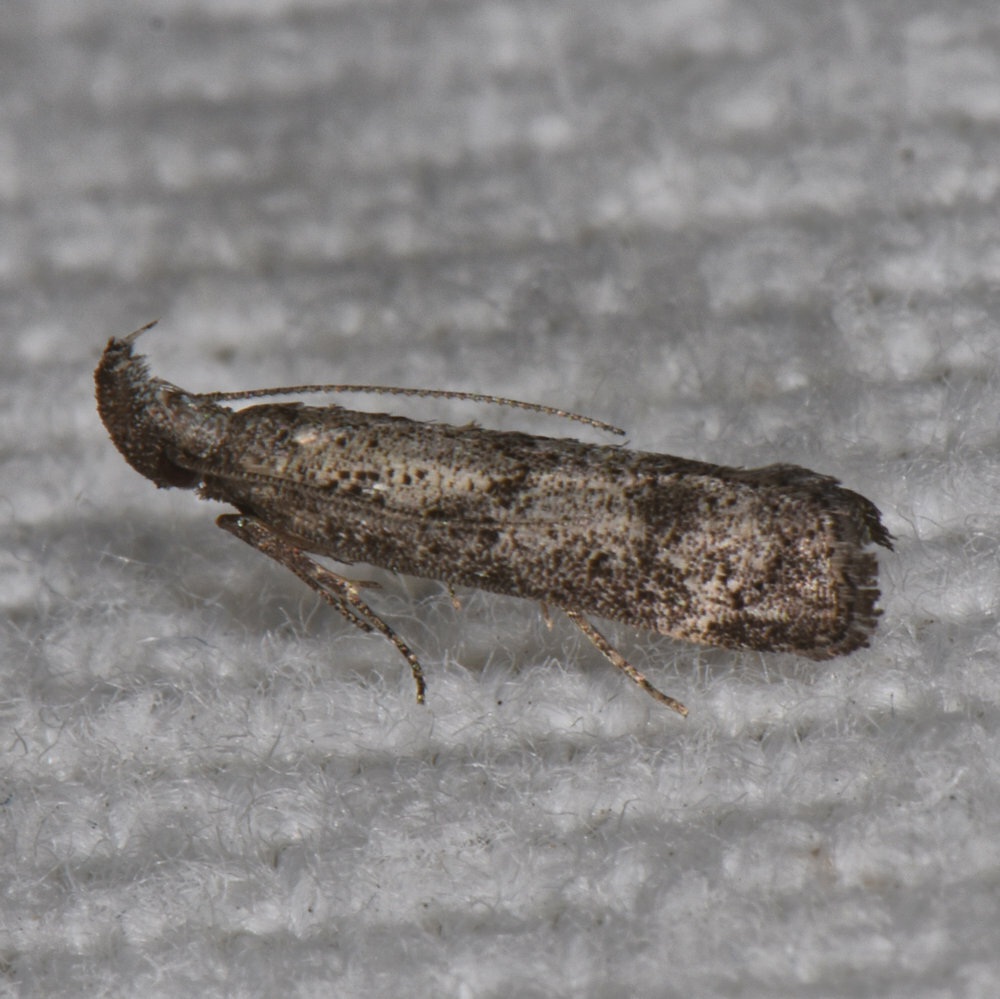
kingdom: Animalia
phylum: Arthropoda
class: Insecta
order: Lepidoptera
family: Gelechiidae
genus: Dichomeris
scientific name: Dichomeris inversella
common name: Inverse dichomeris moth
